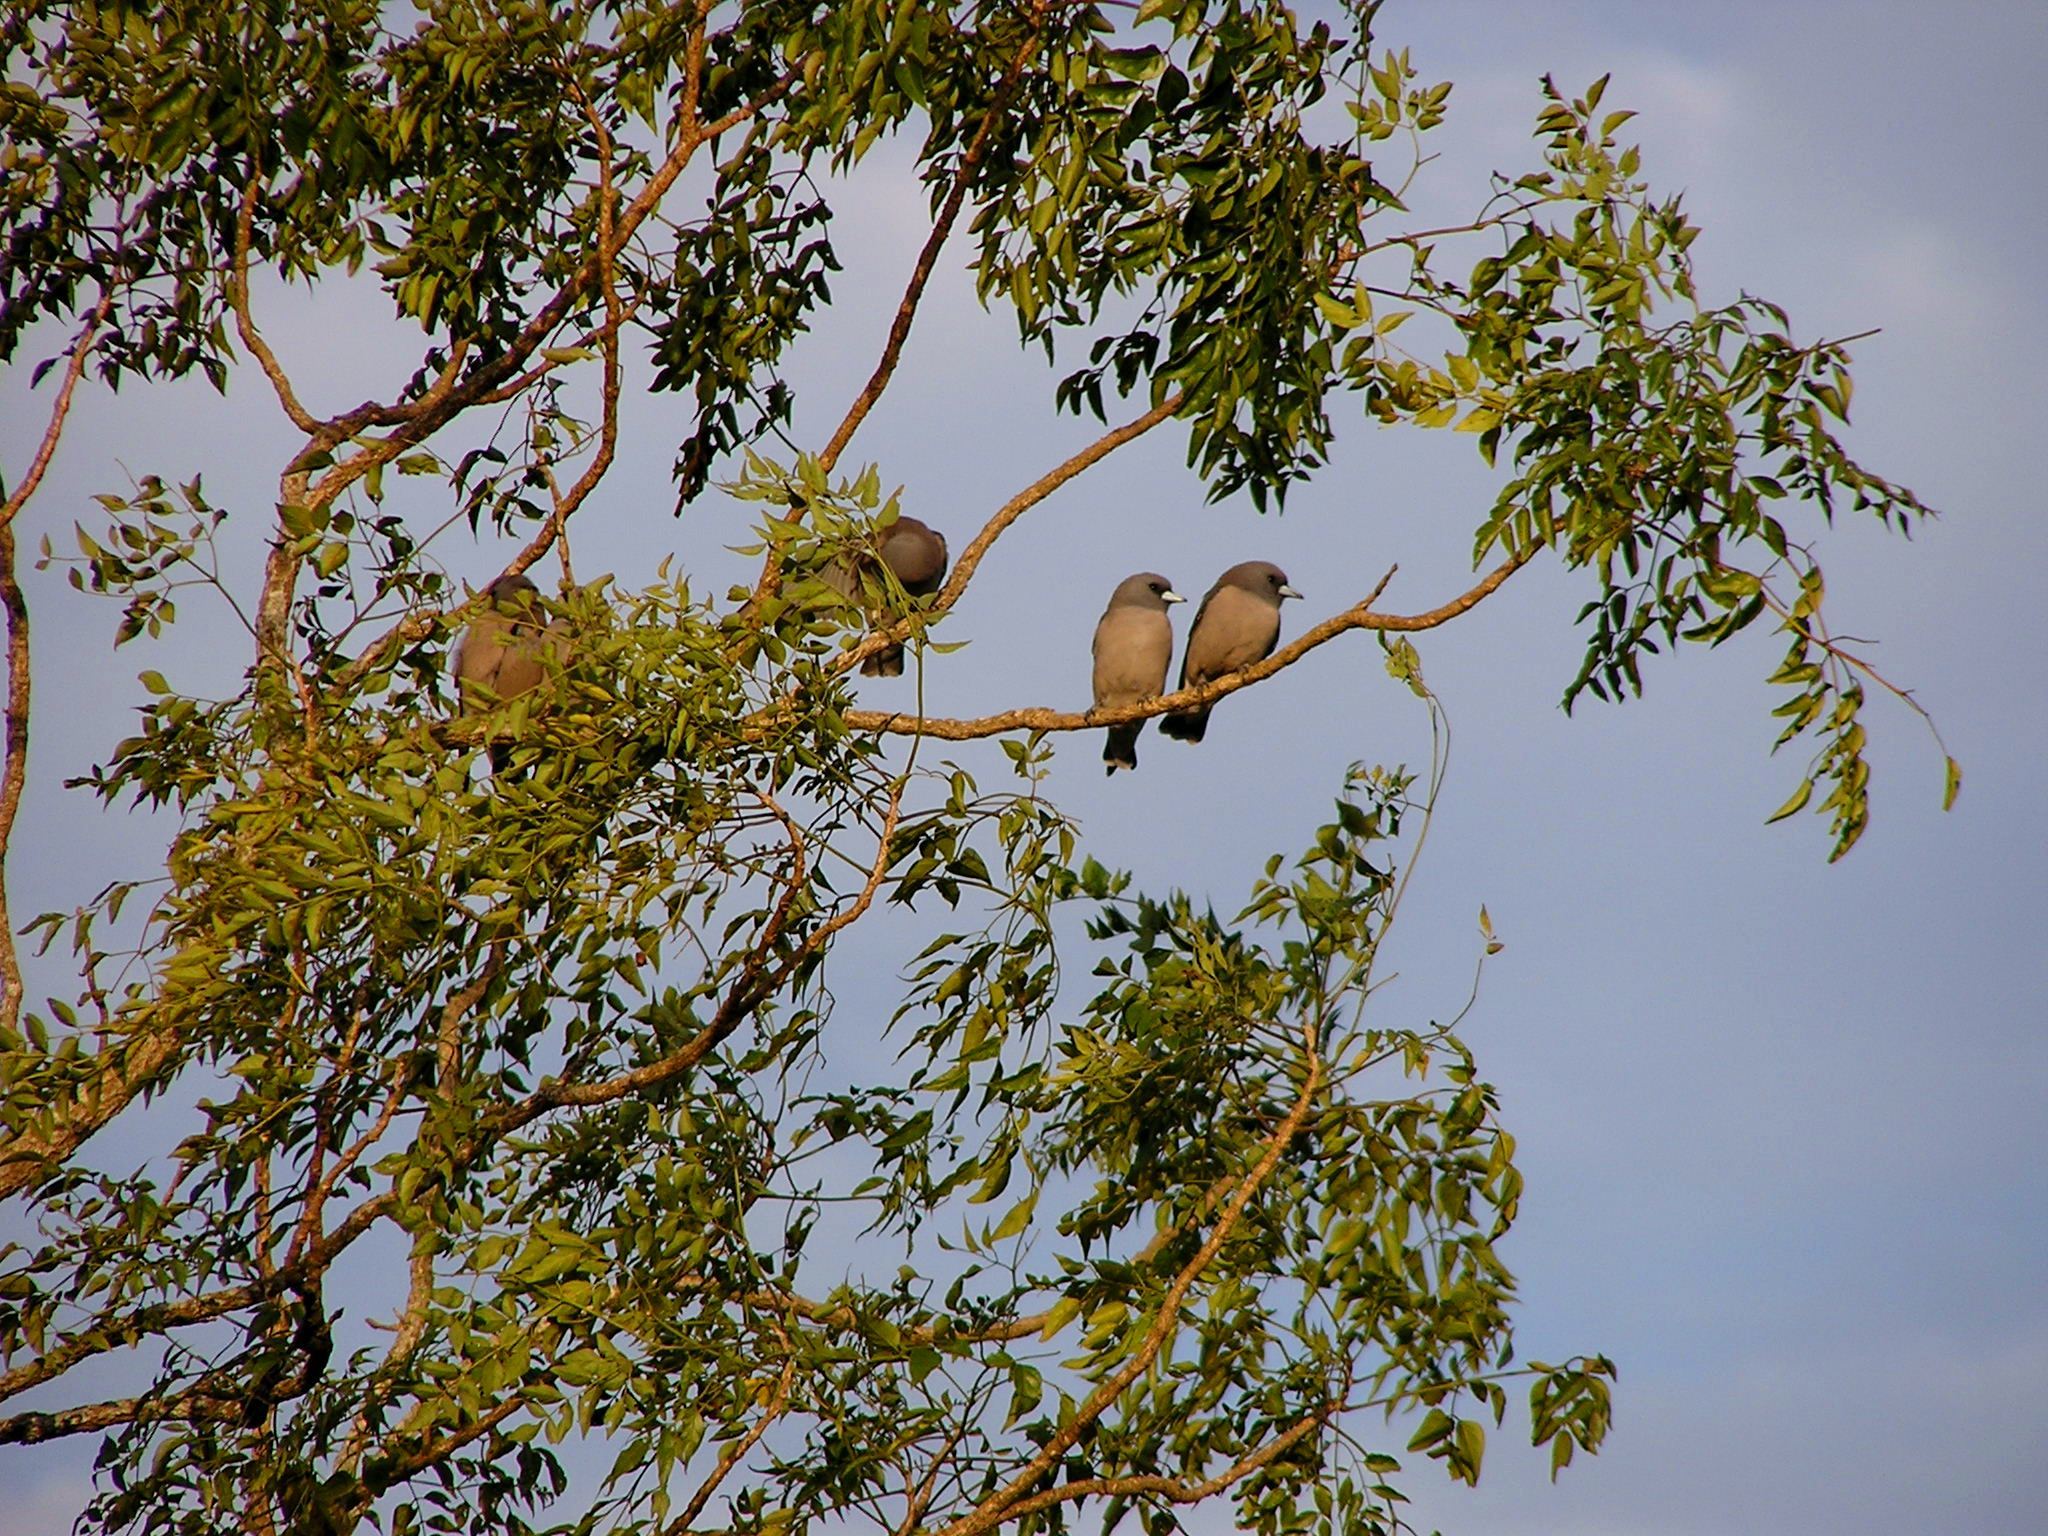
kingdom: Animalia
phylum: Chordata
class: Aves
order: Passeriformes
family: Artamidae
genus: Artamus
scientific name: Artamus fuscus
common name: Ashy woodswallow
